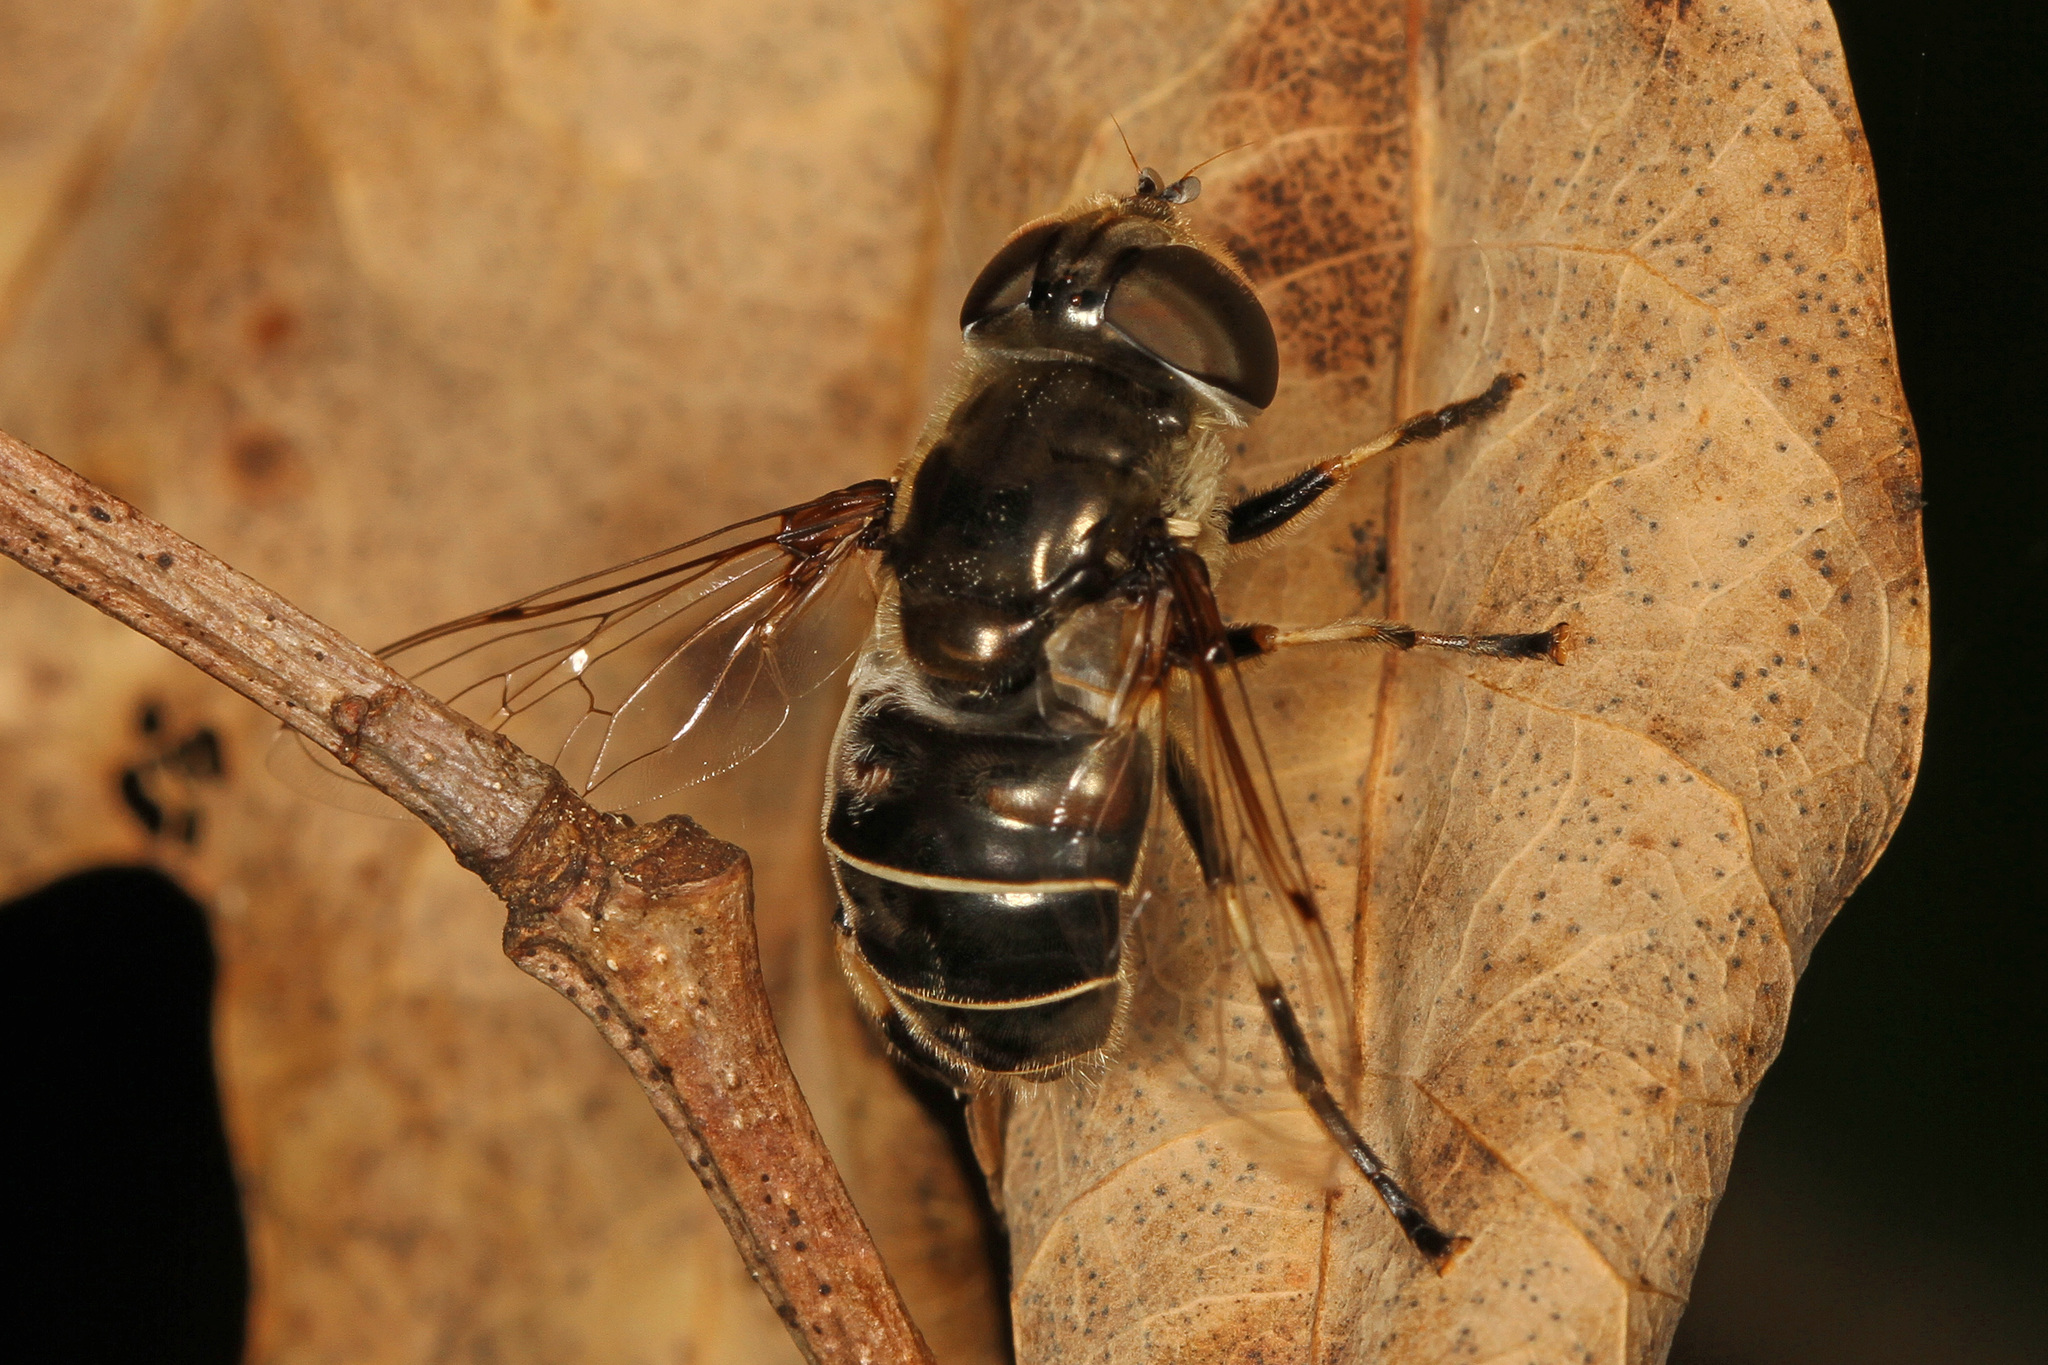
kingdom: Animalia
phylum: Arthropoda
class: Insecta
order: Diptera
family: Syrphidae
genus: Eristalis
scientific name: Eristalis dimidiata
